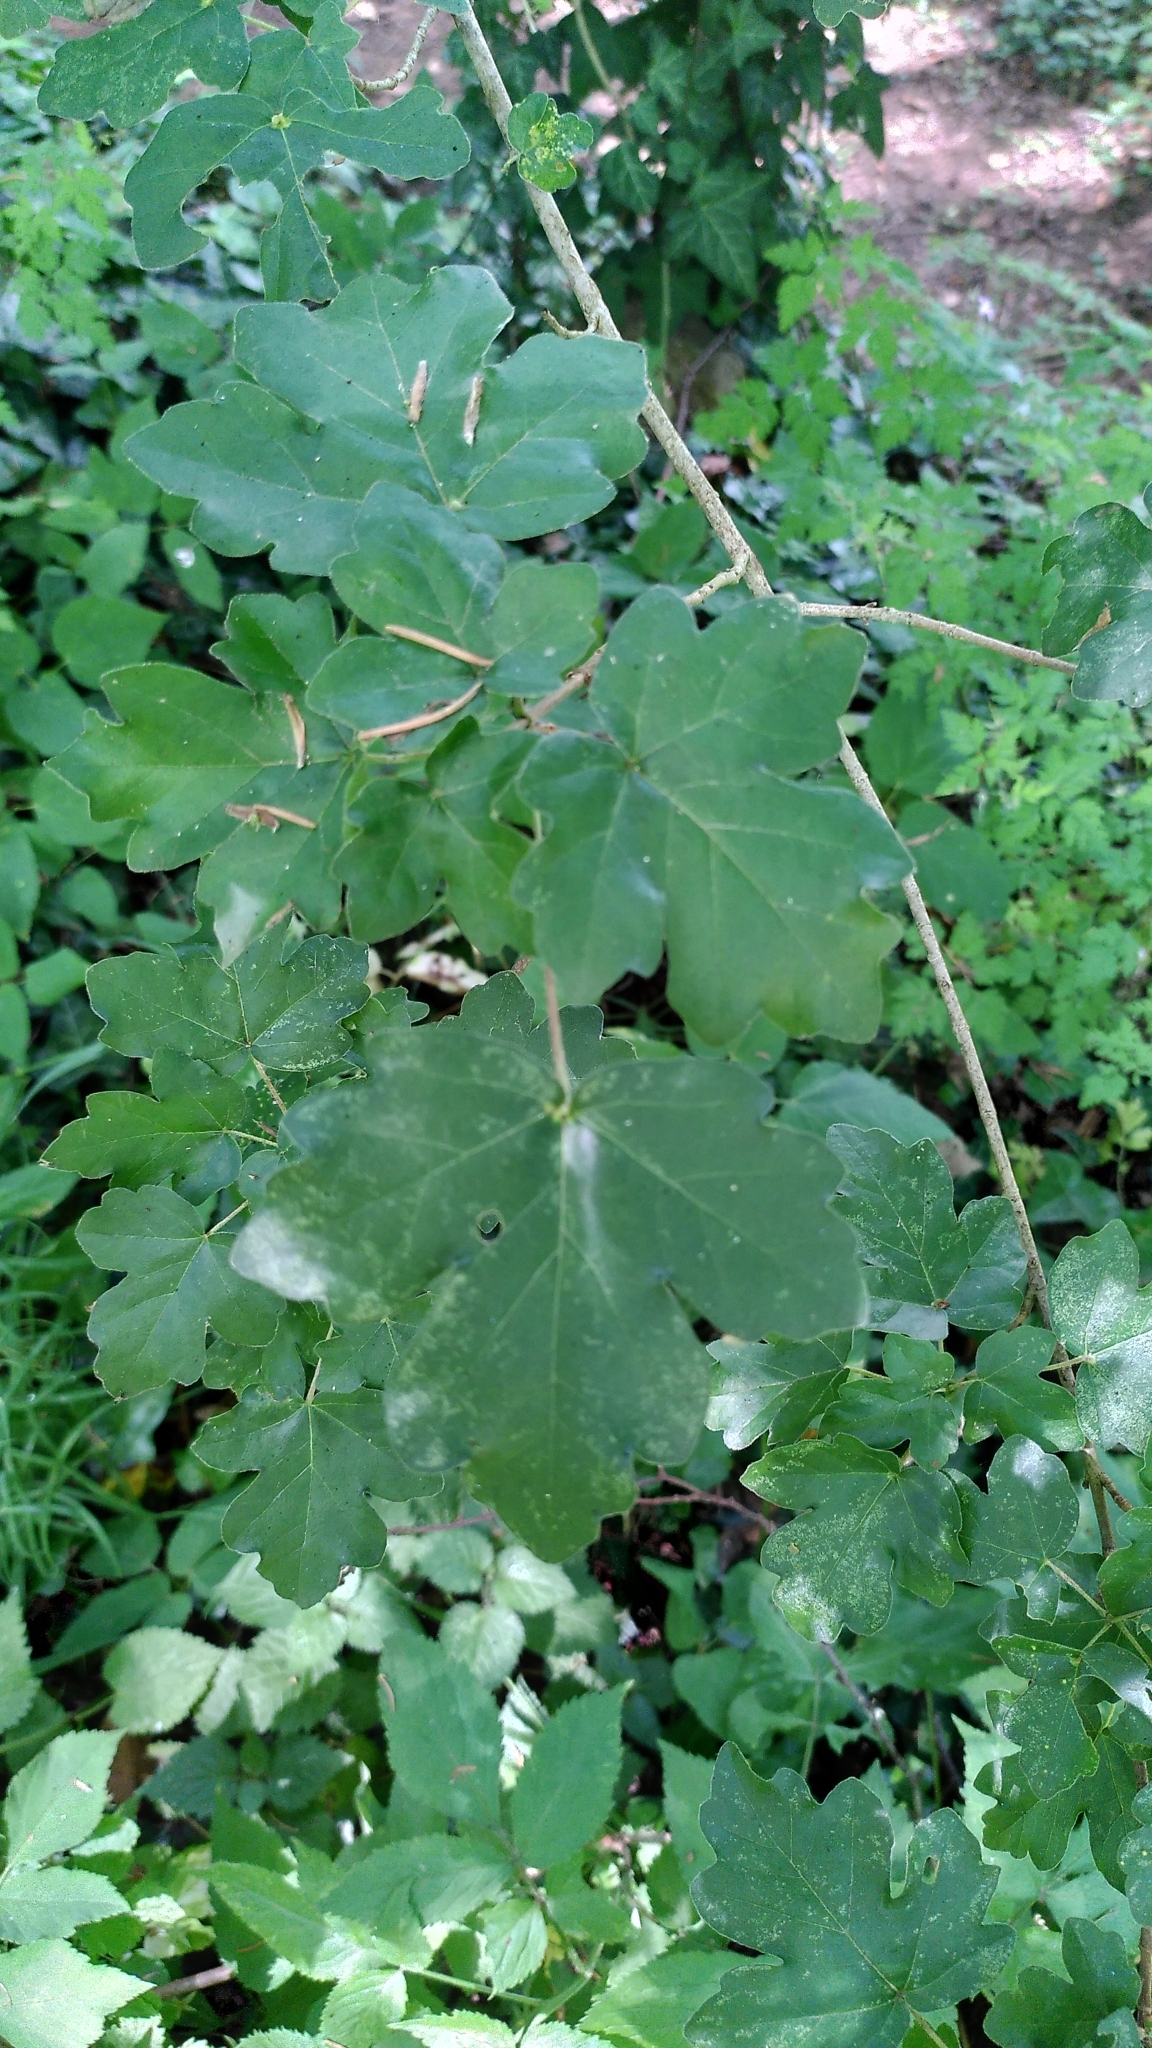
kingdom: Plantae
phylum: Tracheophyta
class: Magnoliopsida
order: Sapindales
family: Sapindaceae
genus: Acer
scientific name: Acer campestre
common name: Field maple
